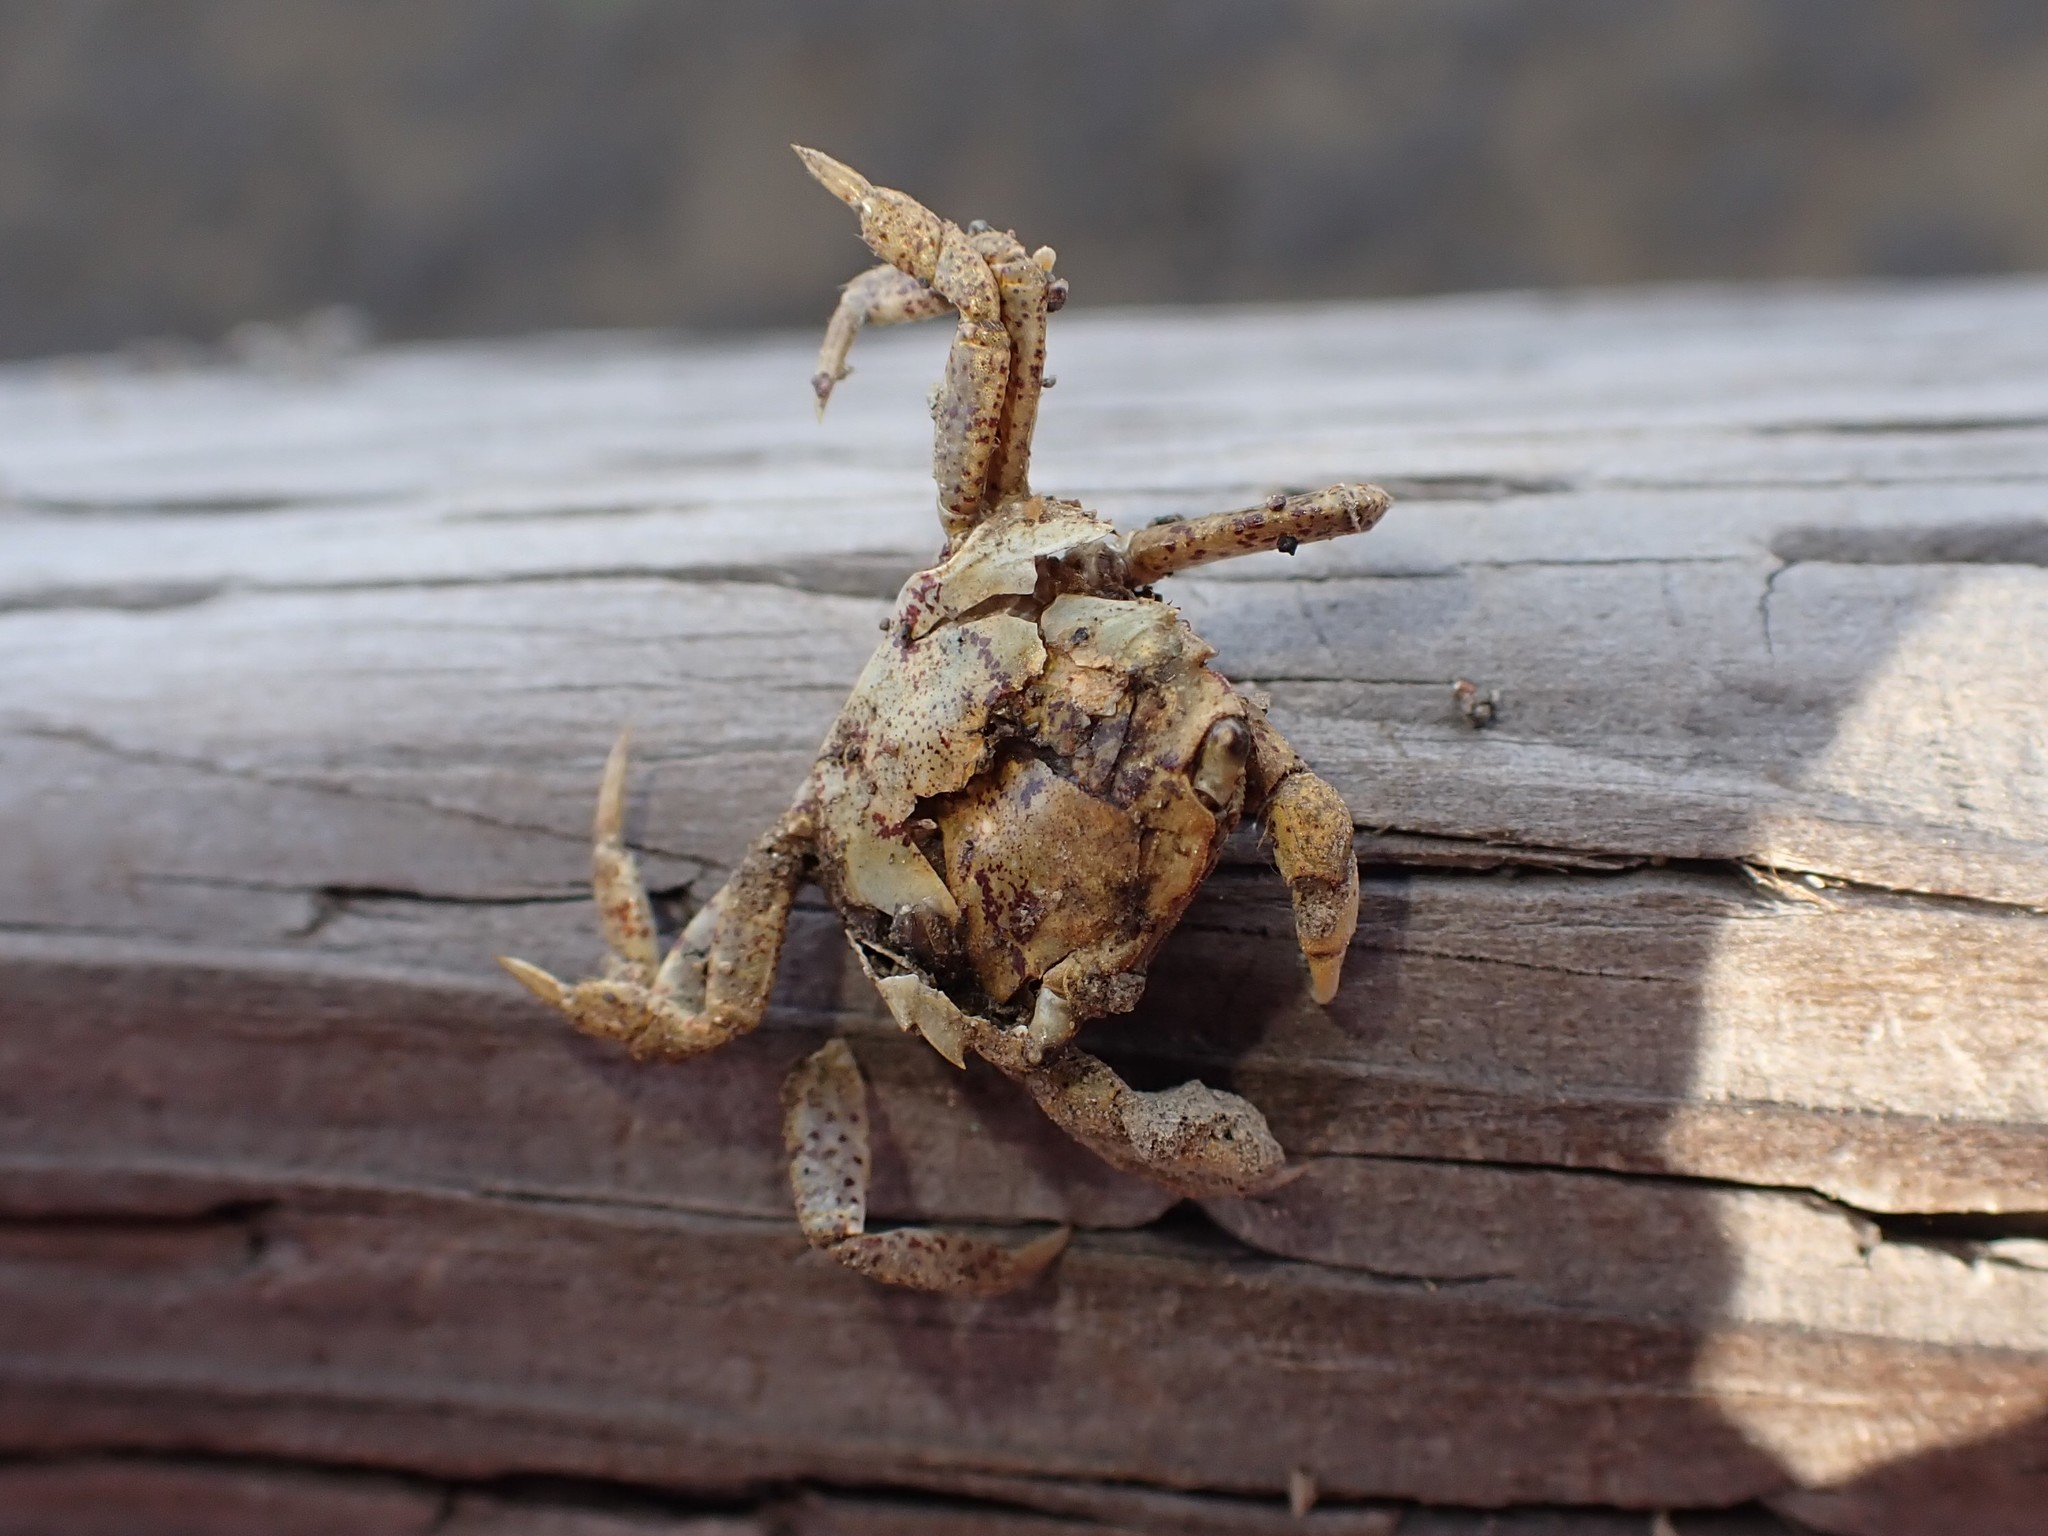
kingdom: Animalia
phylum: Arthropoda
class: Malacostraca
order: Decapoda
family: Varunidae
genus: Hemigrapsus
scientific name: Hemigrapsus oregonensis
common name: Yellow shore crab
